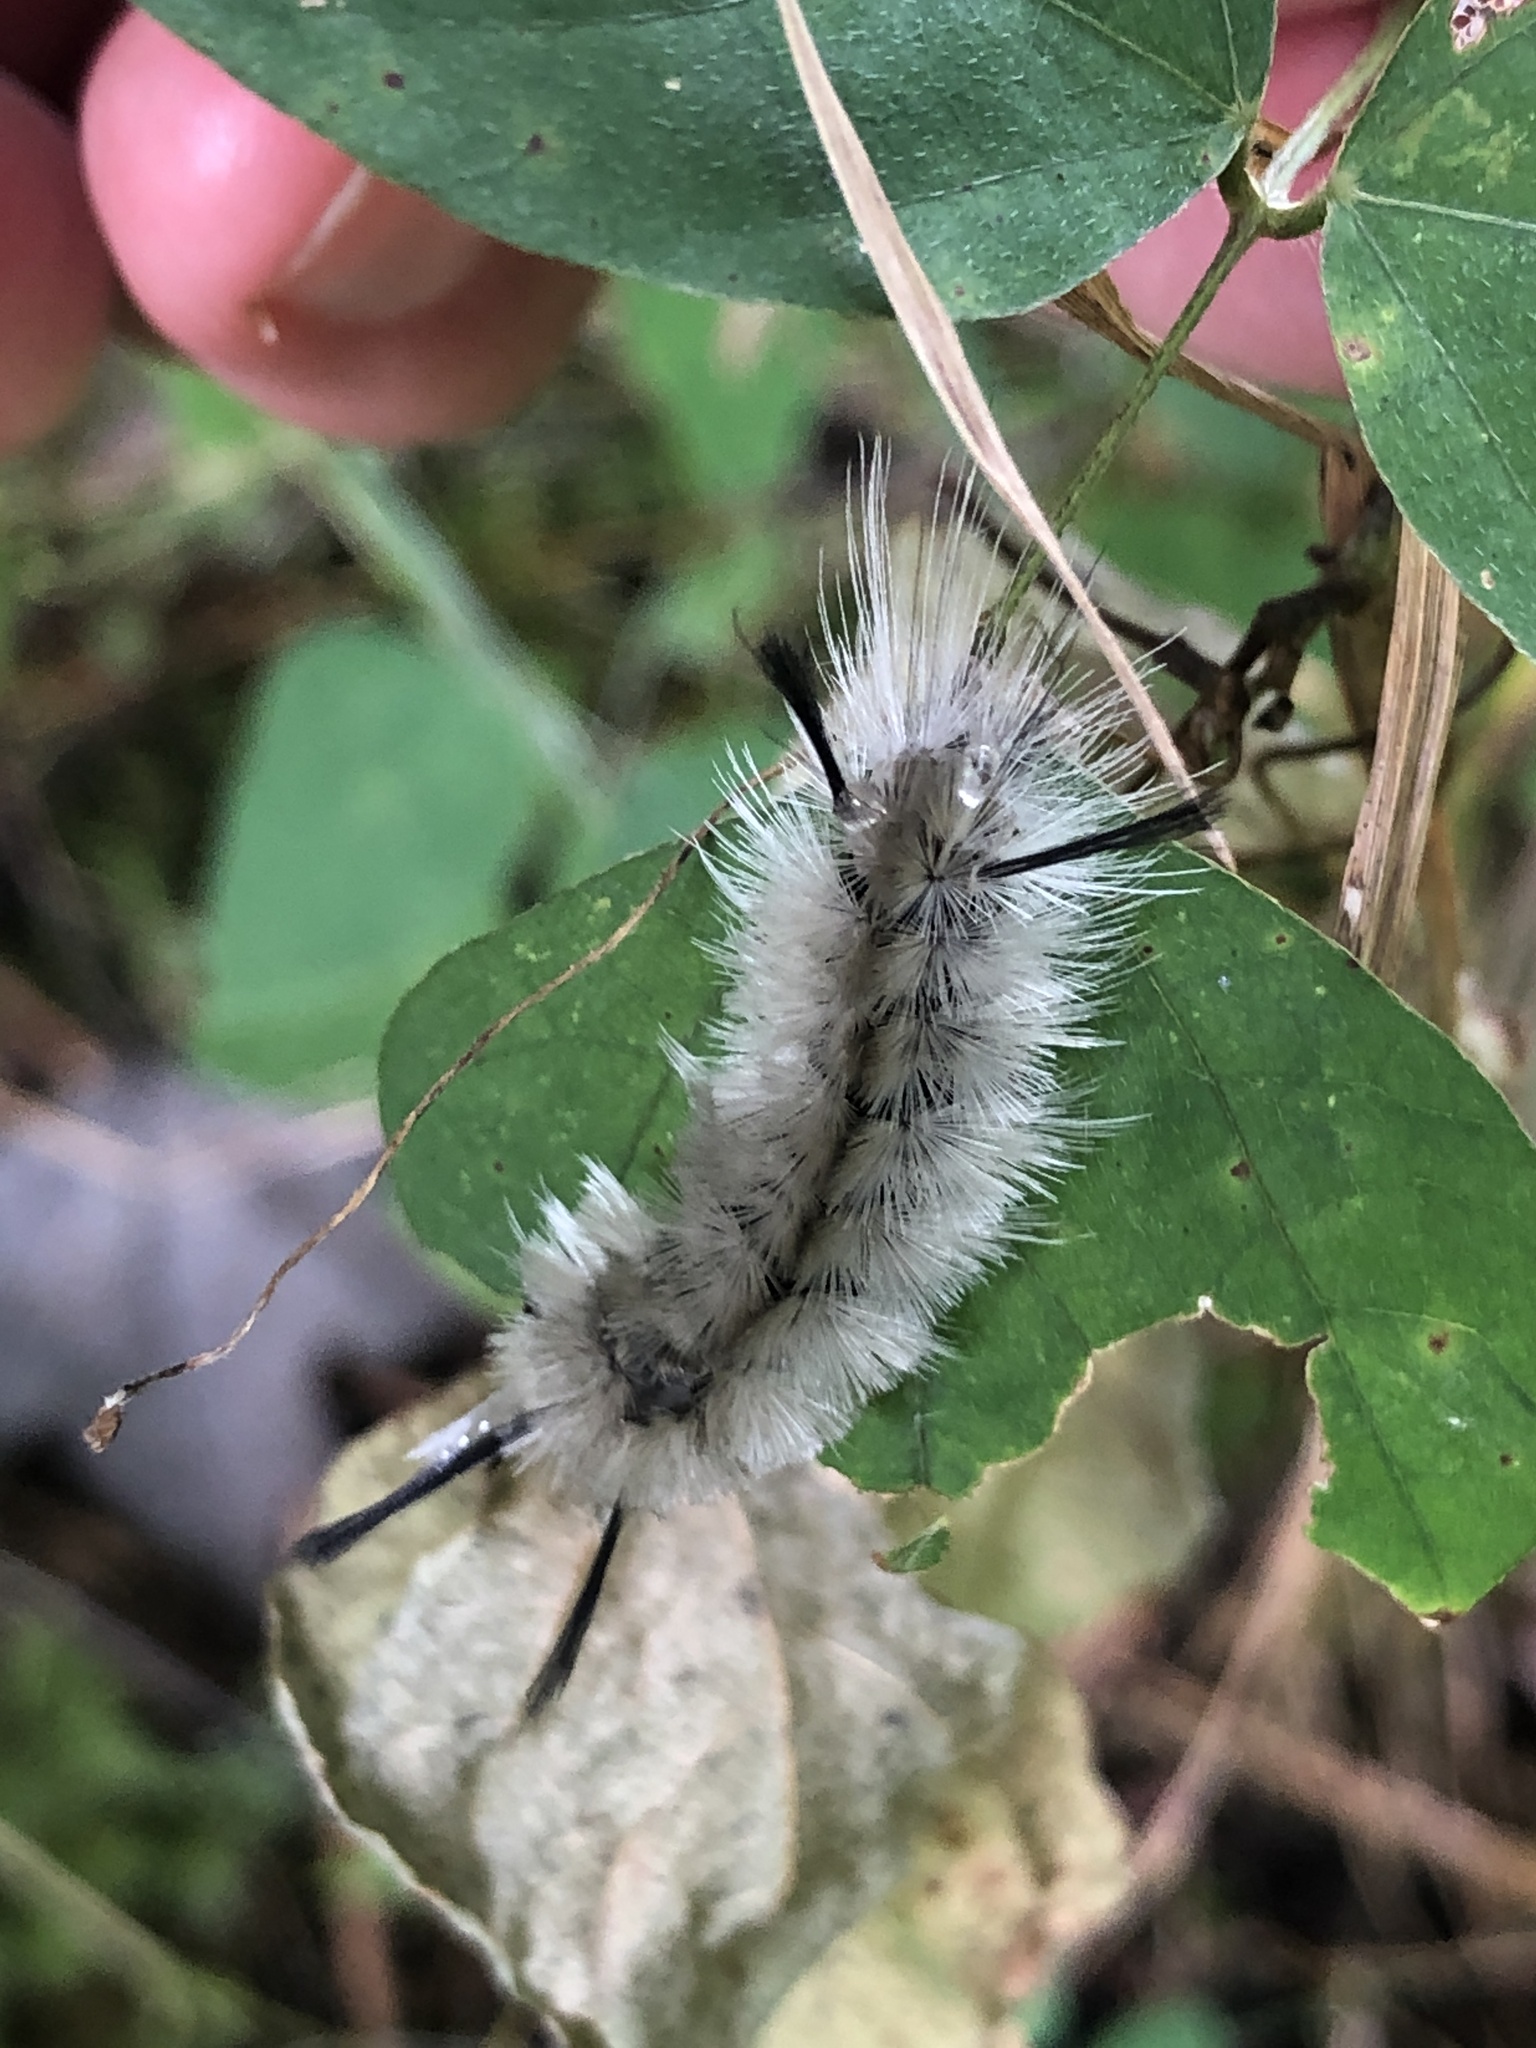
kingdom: Animalia
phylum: Arthropoda
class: Insecta
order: Lepidoptera
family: Erebidae
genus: Halysidota
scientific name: Halysidota tessellaris
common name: Banded tussock moth
